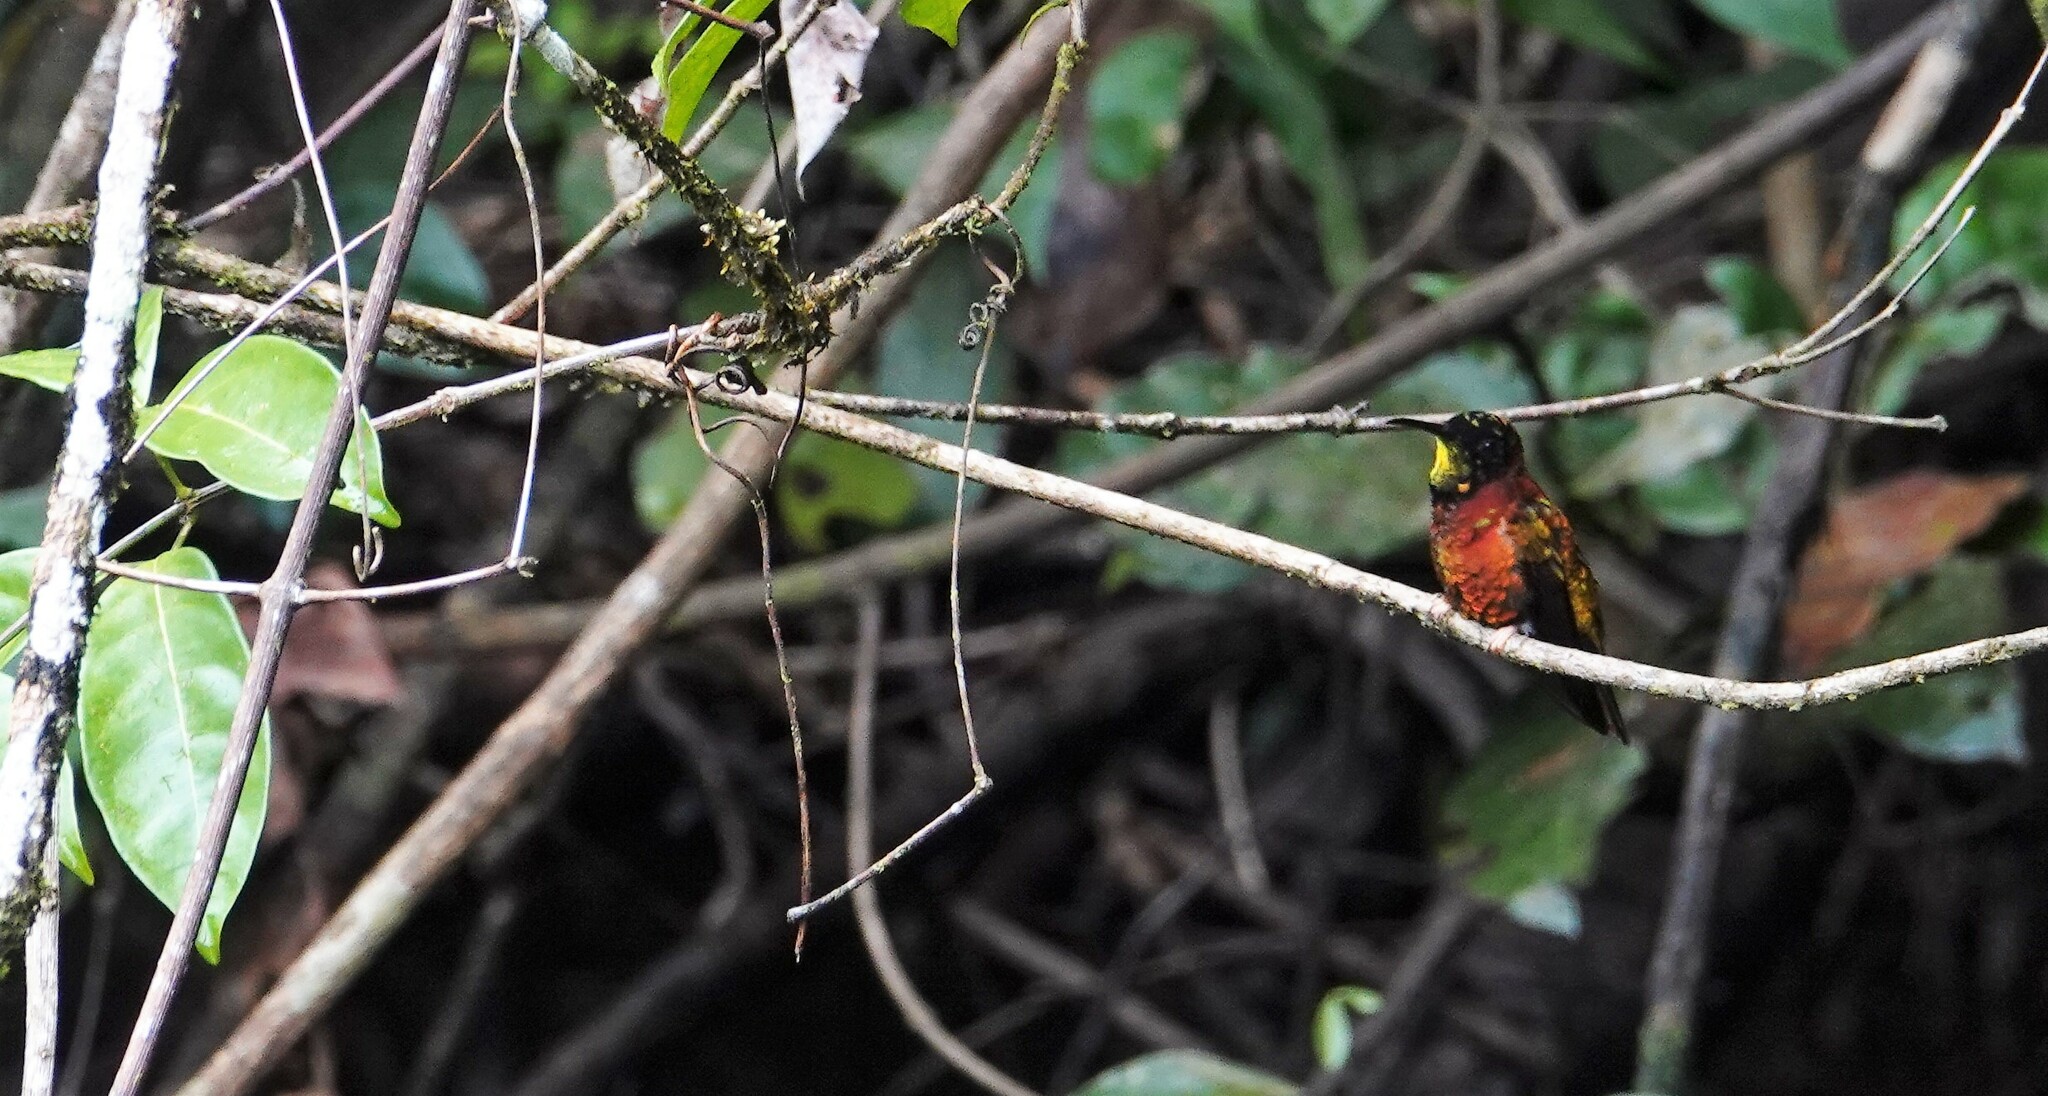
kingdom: Animalia
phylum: Chordata
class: Aves
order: Apodiformes
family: Trochilidae
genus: Topaza
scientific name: Topaza pella
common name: Crimson topaz
